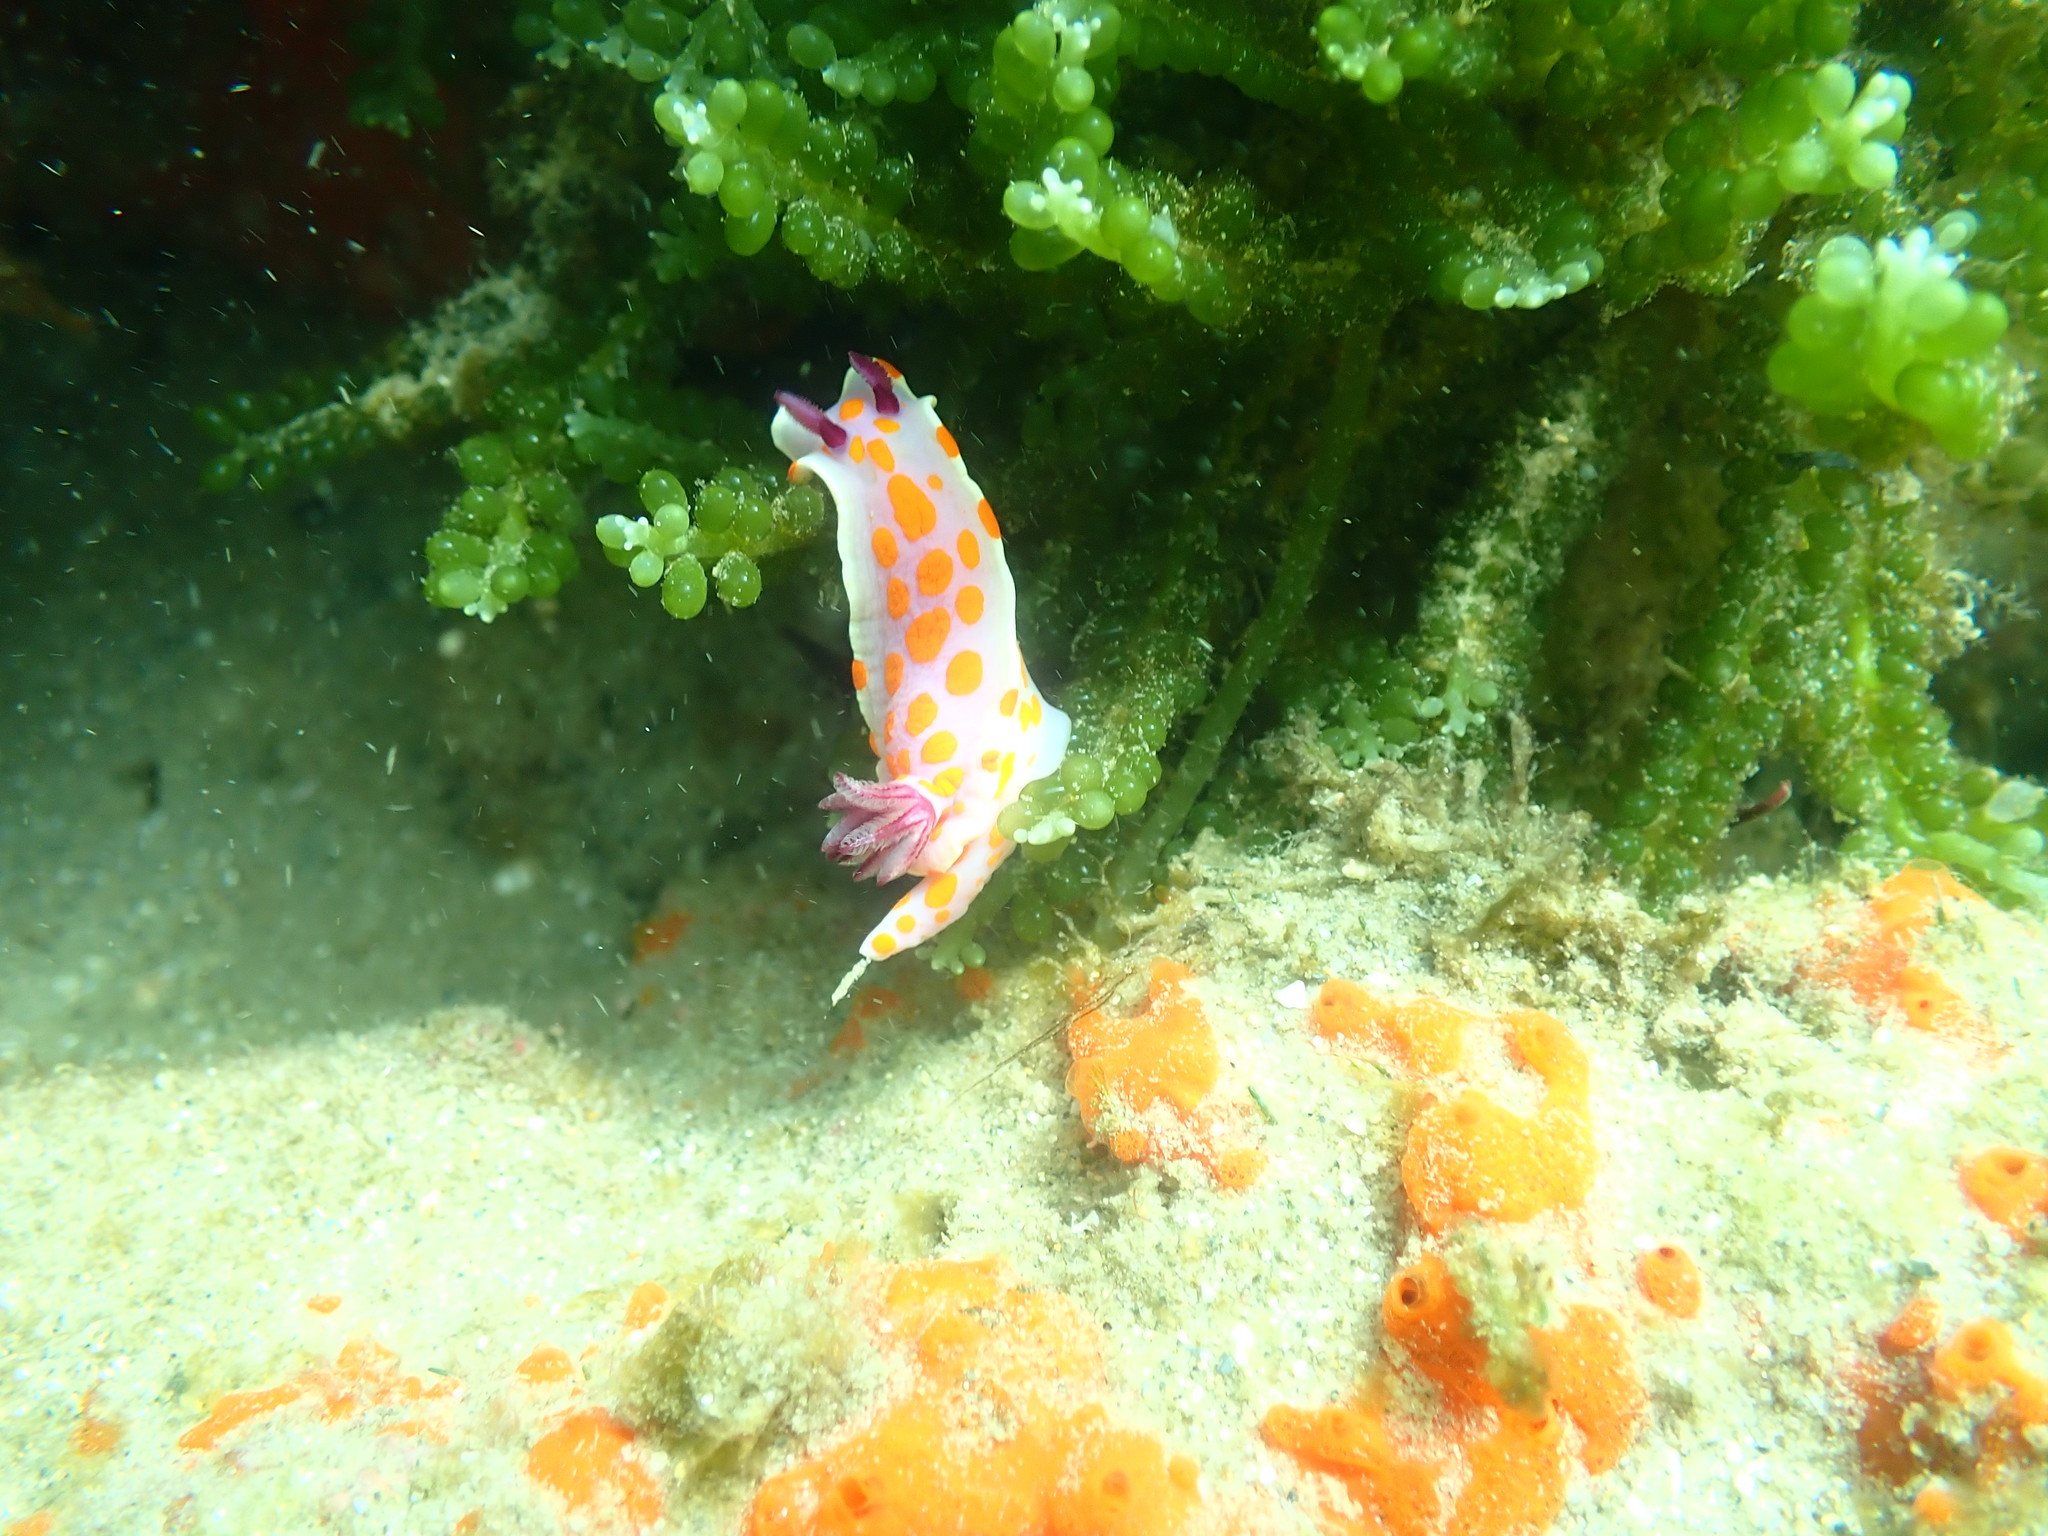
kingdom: Plantae
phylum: Chlorophyta
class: Ulvophyceae
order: Bryopsidales
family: Caulerpaceae
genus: Caulerpa
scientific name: Caulerpa geminata
